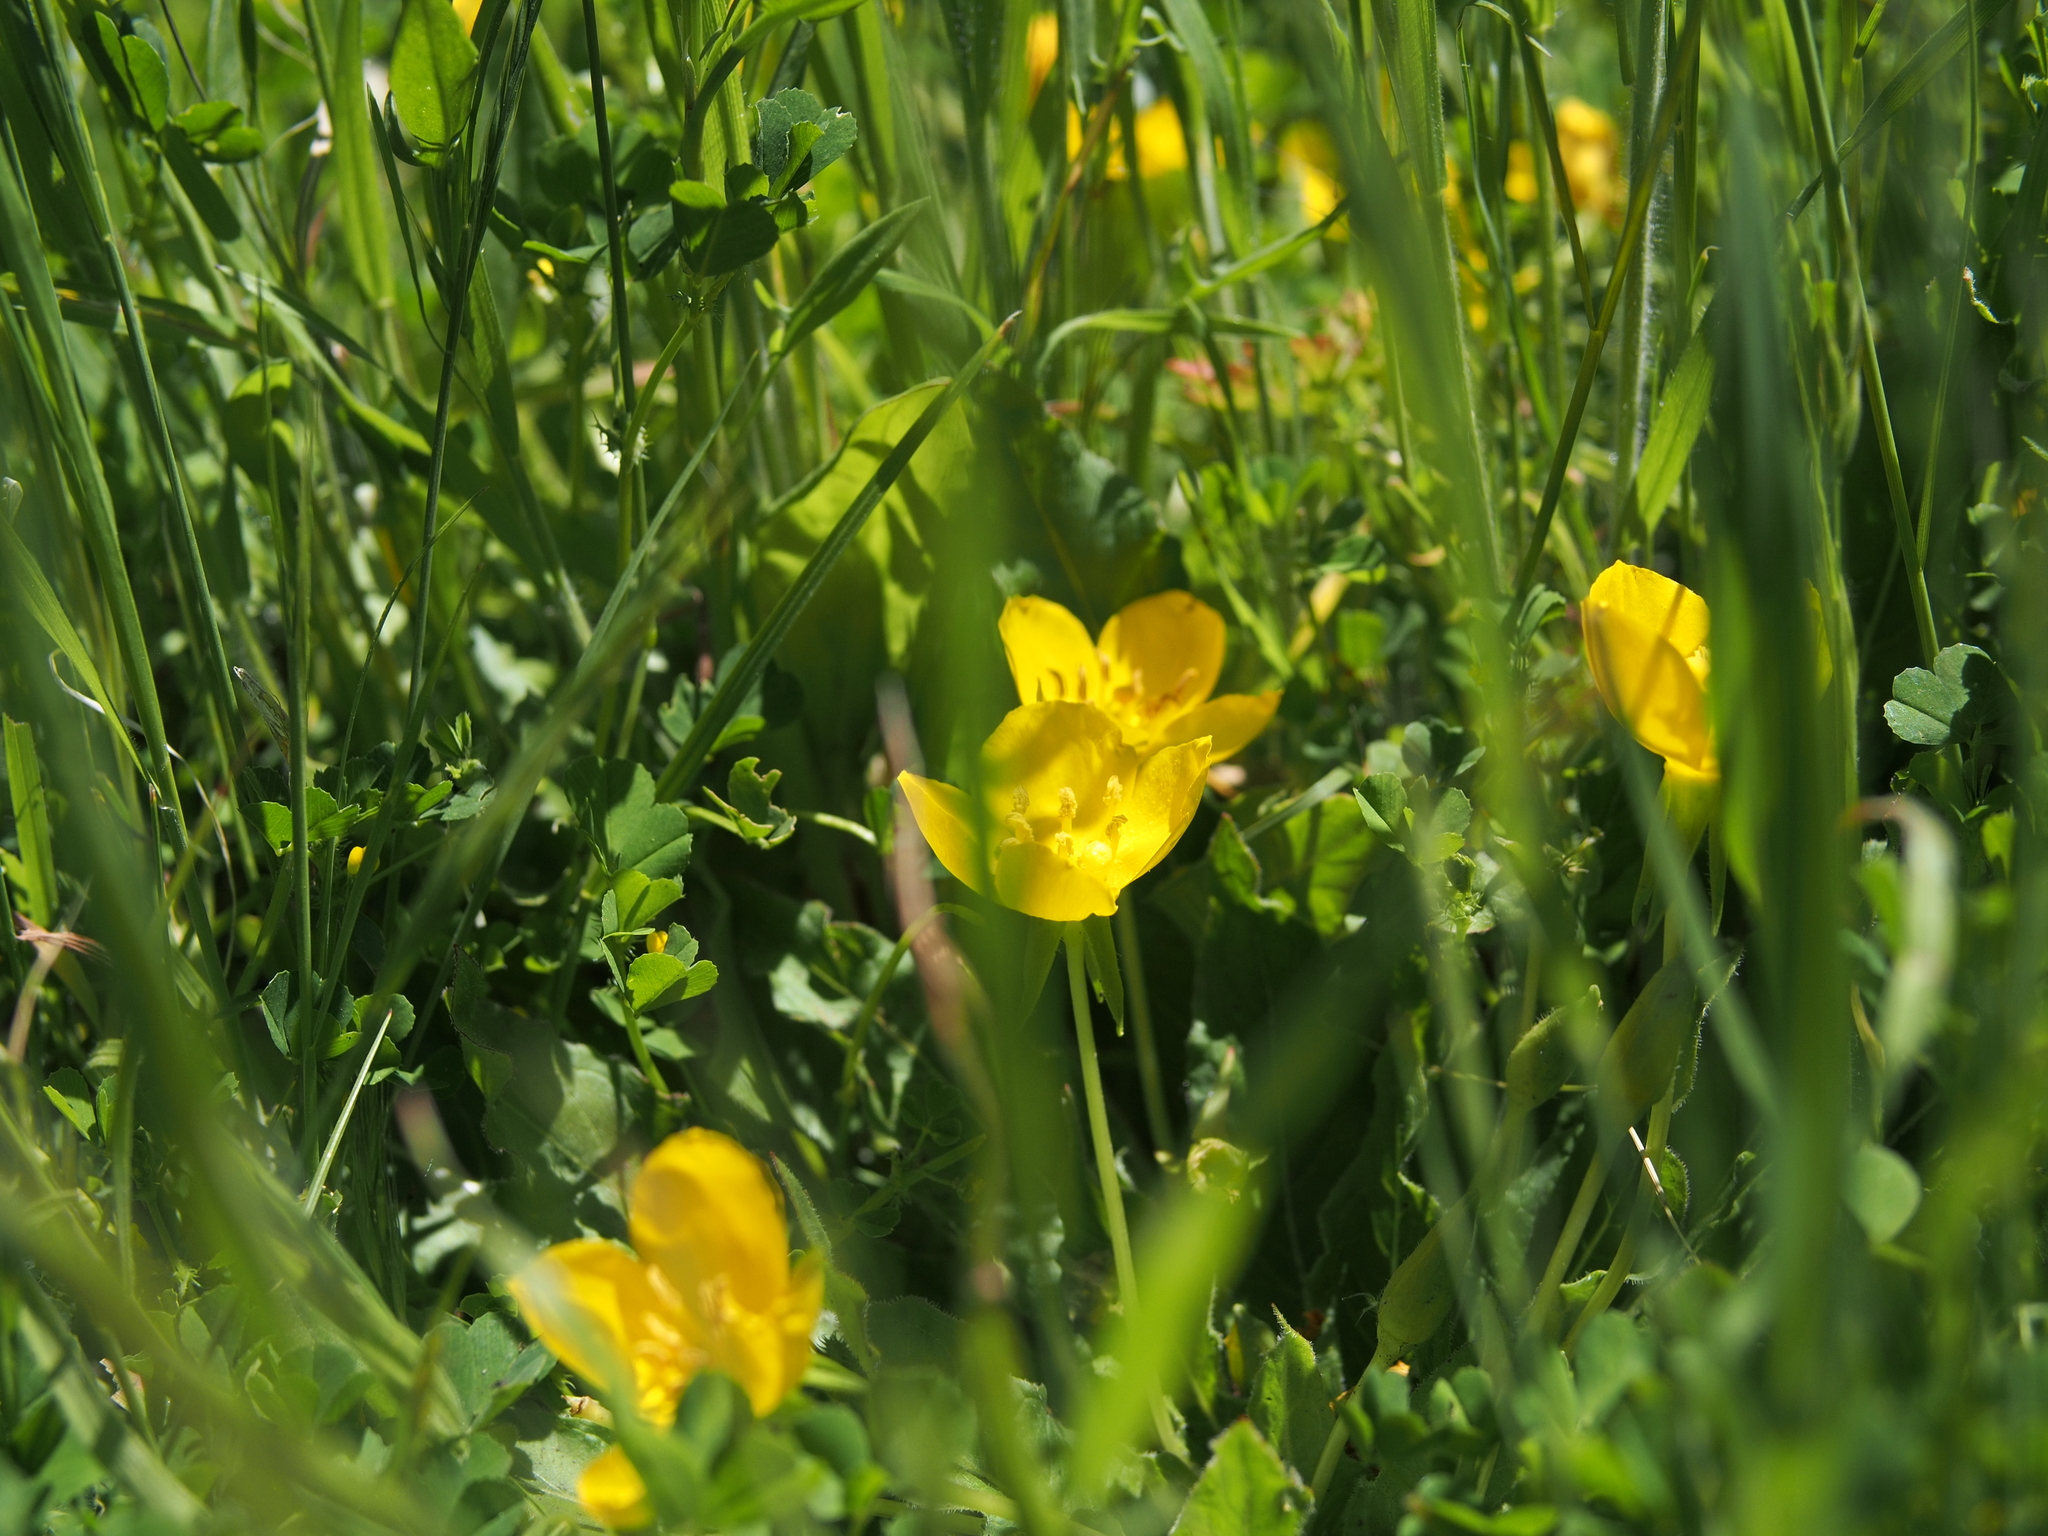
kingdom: Plantae
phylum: Tracheophyta
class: Magnoliopsida
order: Myrtales
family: Onagraceae
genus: Taraxia
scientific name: Taraxia ovata
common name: Goldeneggs
